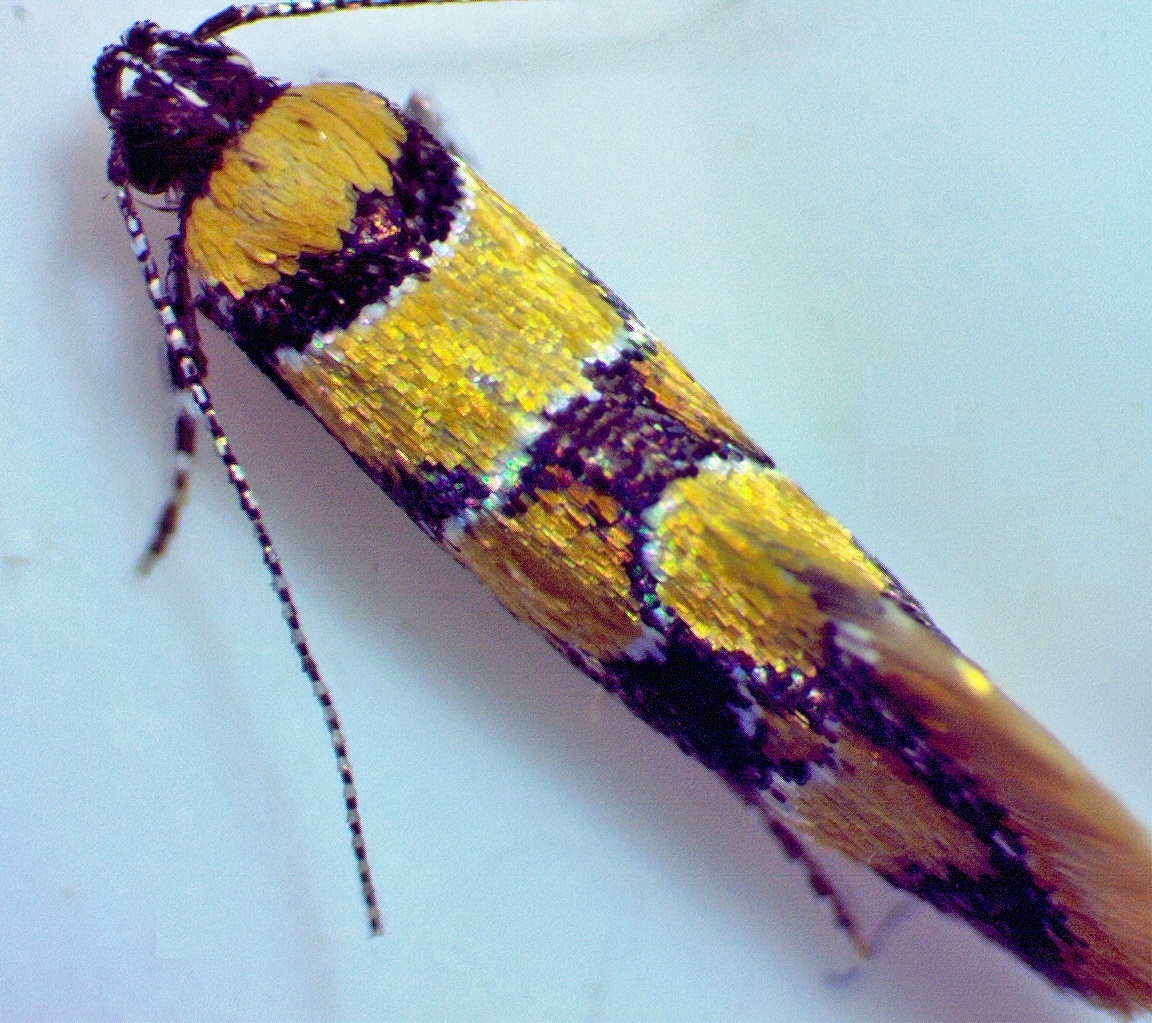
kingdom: Animalia
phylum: Arthropoda
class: Insecta
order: Lepidoptera
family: Oecophoridae
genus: Decantha
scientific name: Decantha borkhausenii
